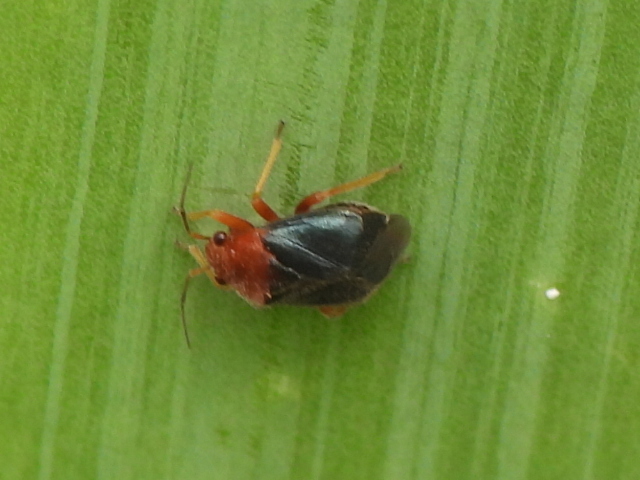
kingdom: Animalia
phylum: Arthropoda
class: Insecta
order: Hemiptera
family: Miridae
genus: Halticotoma
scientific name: Halticotoma valida
